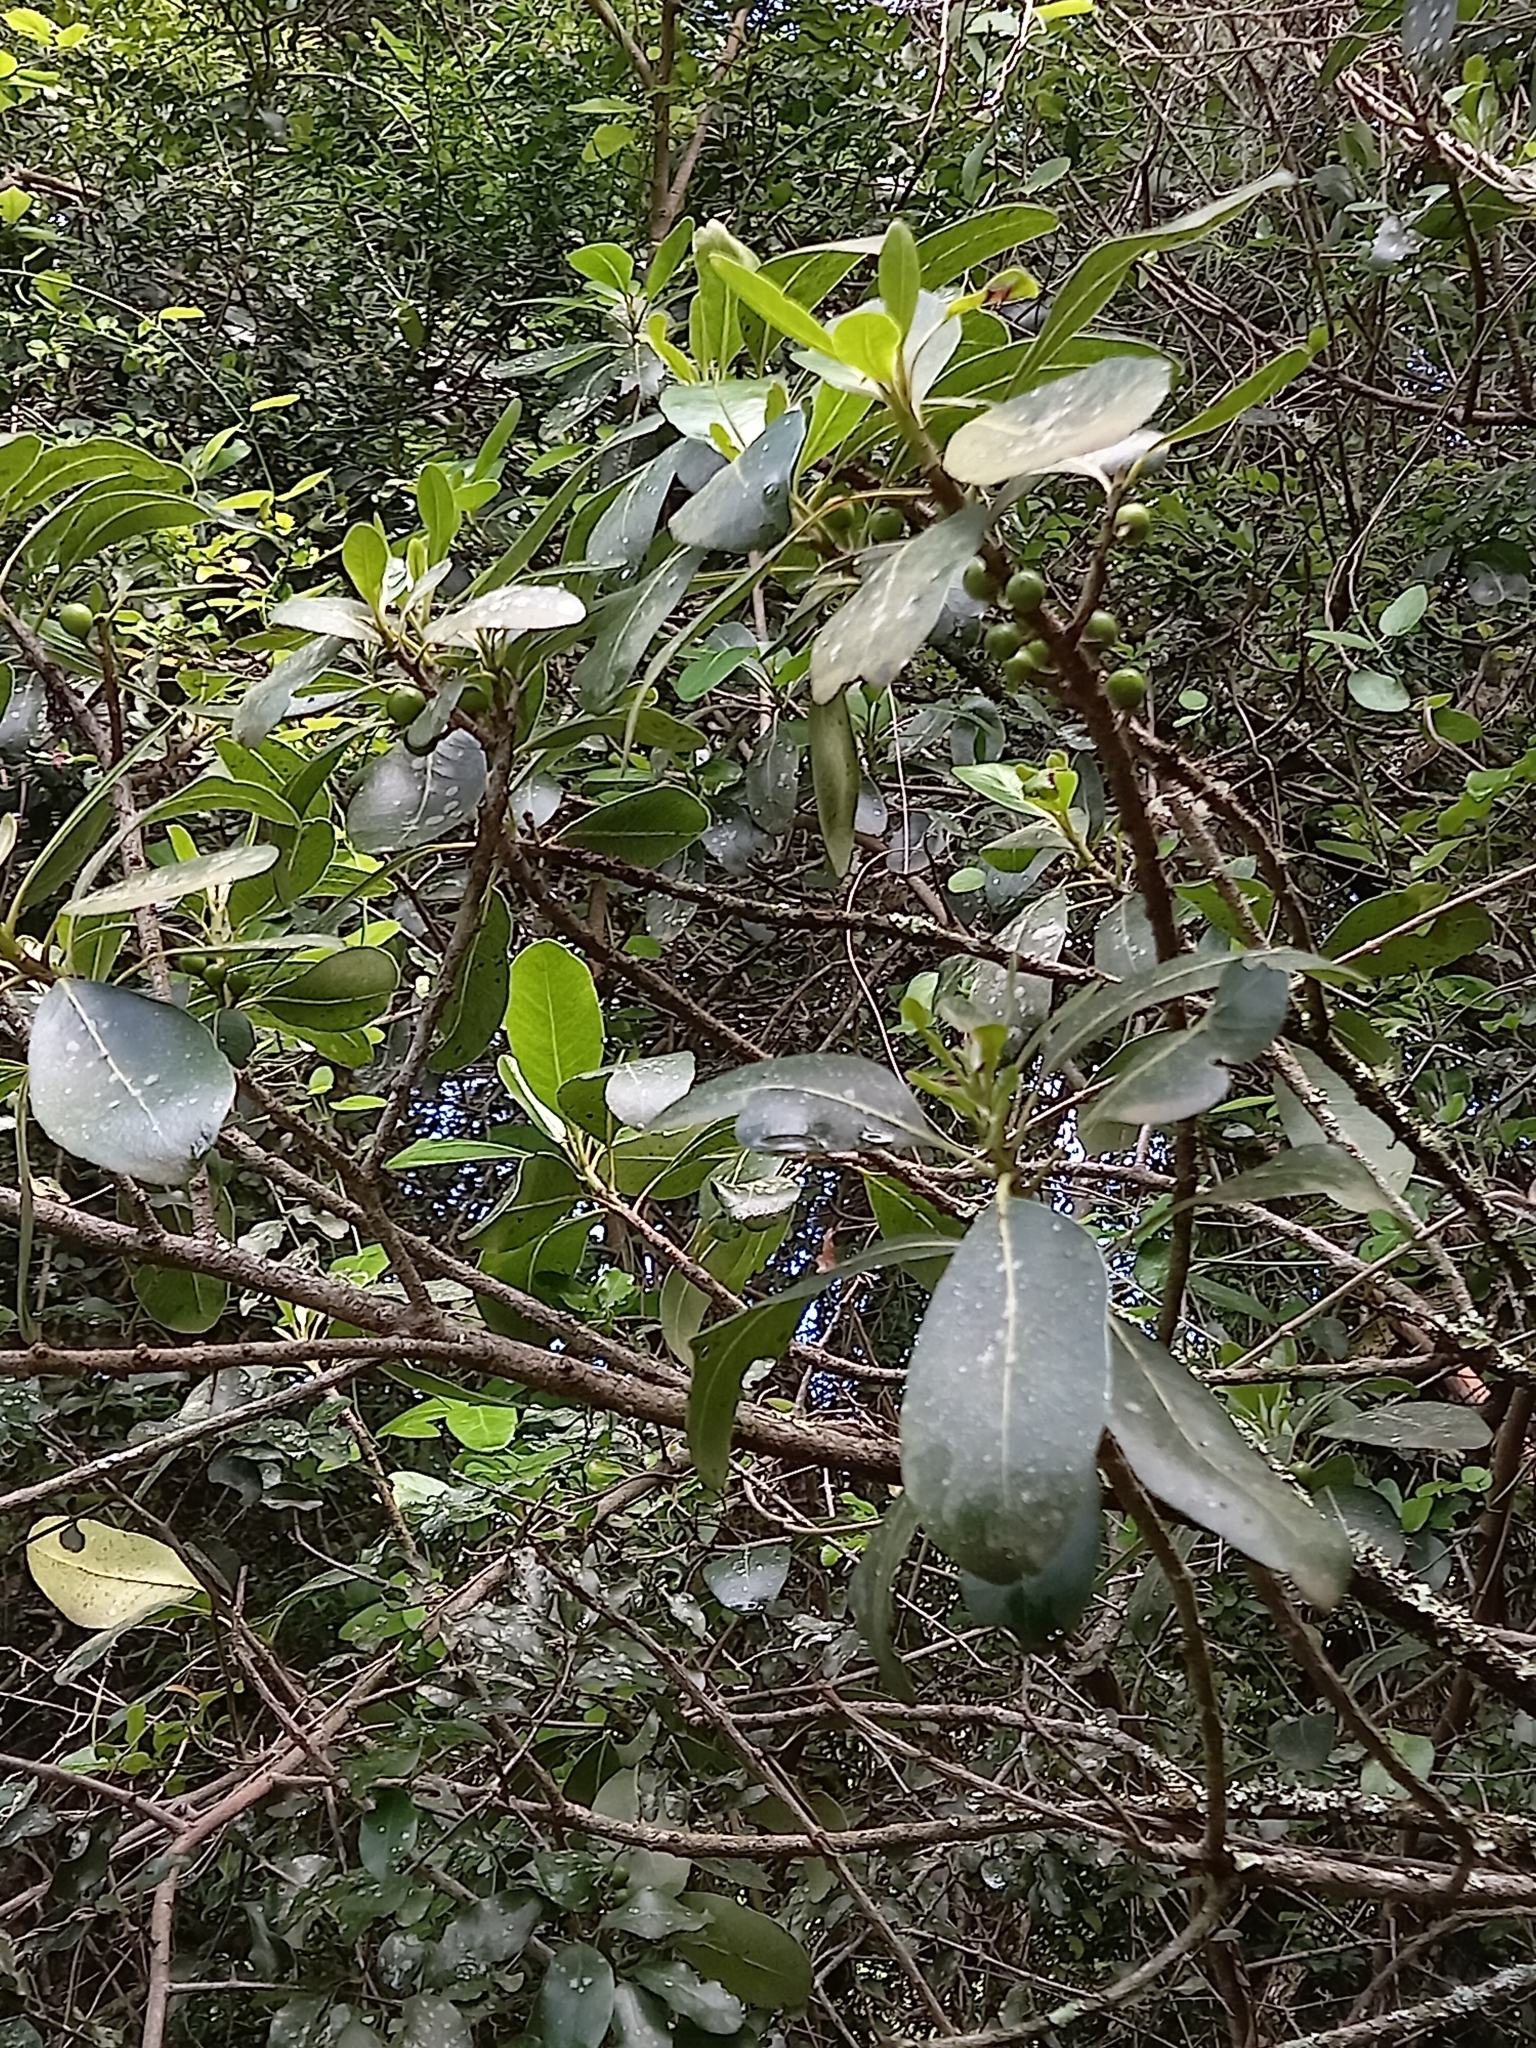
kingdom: Plantae
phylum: Tracheophyta
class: Magnoliopsida
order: Ericales
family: Sapotaceae
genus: Sideroxylon
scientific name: Sideroxylon inerme
